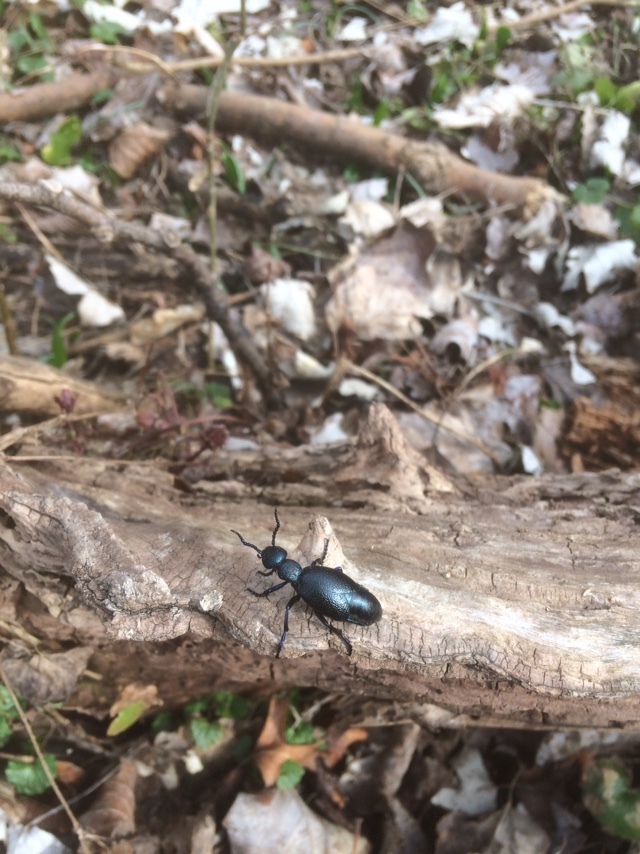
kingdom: Animalia
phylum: Arthropoda
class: Insecta
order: Coleoptera
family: Meloidae
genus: Meloe
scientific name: Meloe proscarabaeus
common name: Black oil-beetle
